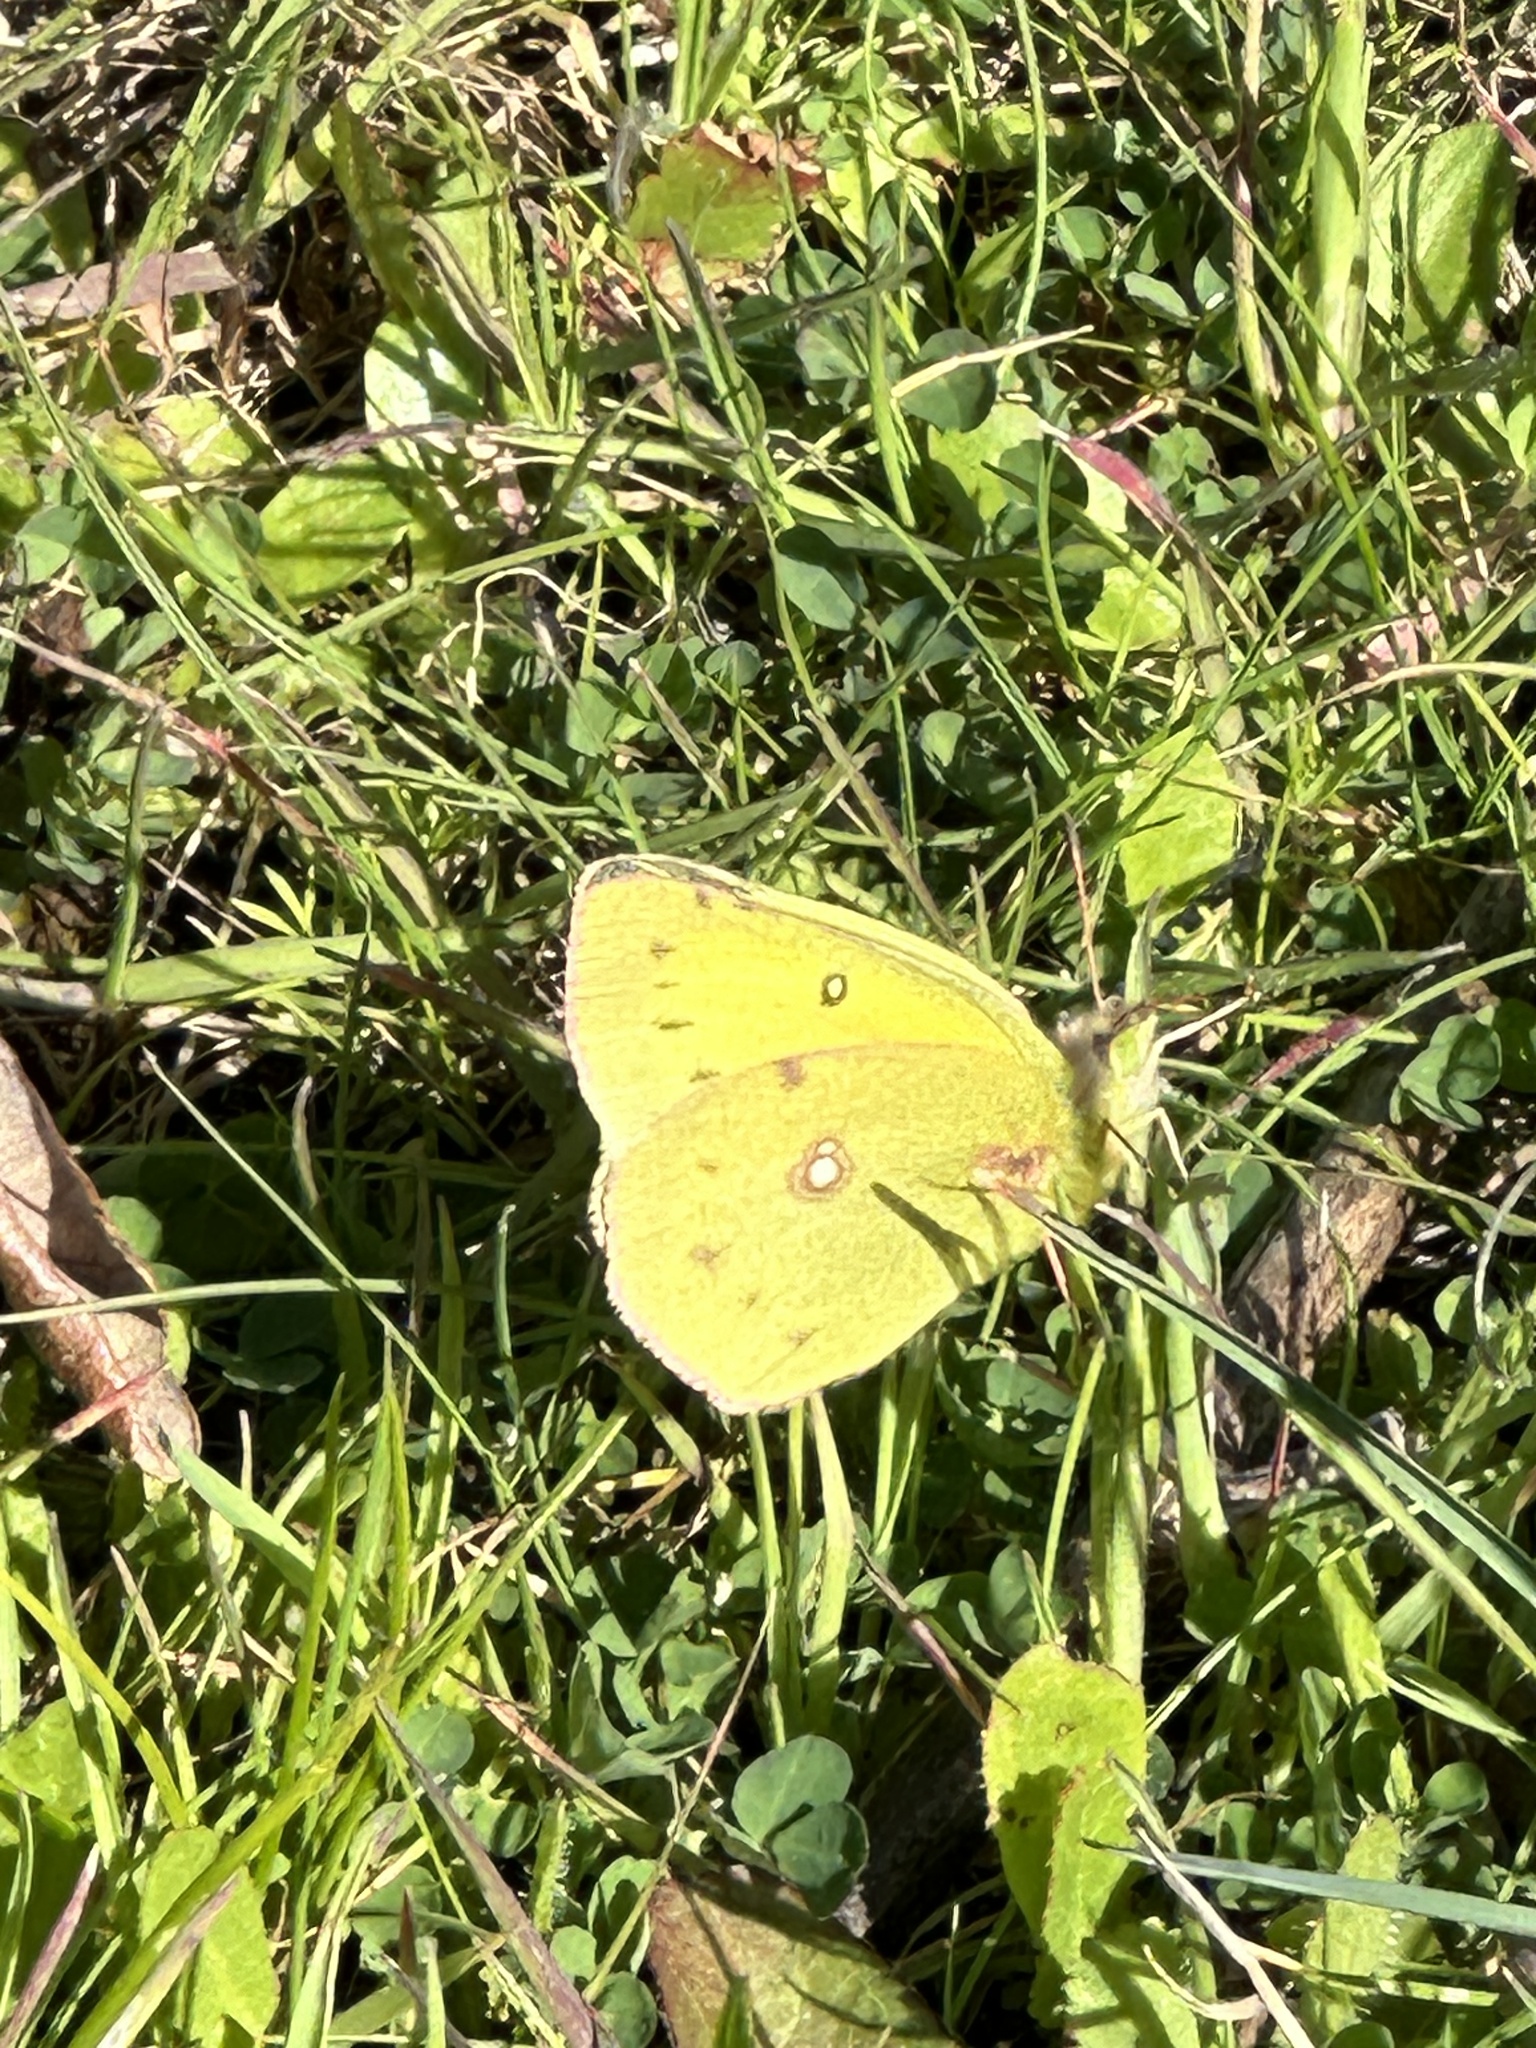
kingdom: Animalia
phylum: Arthropoda
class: Insecta
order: Lepidoptera
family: Pieridae
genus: Colias
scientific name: Colias eurytheme
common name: Alfalfa butterfly
